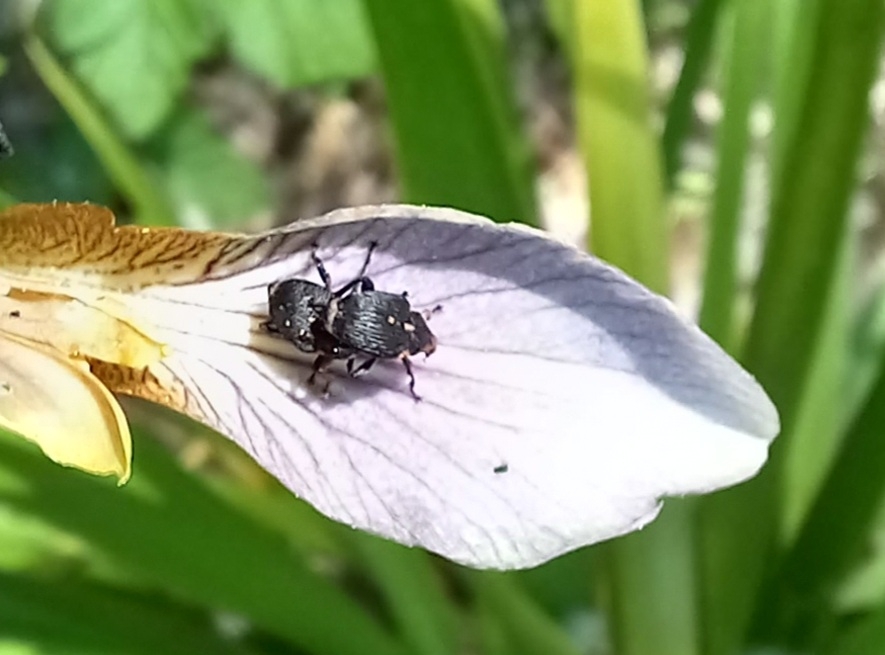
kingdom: Animalia
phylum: Arthropoda
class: Insecta
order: Coleoptera
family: Curculionidae
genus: Mononychus
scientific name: Mononychus punctumalbum
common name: Iris weevil
